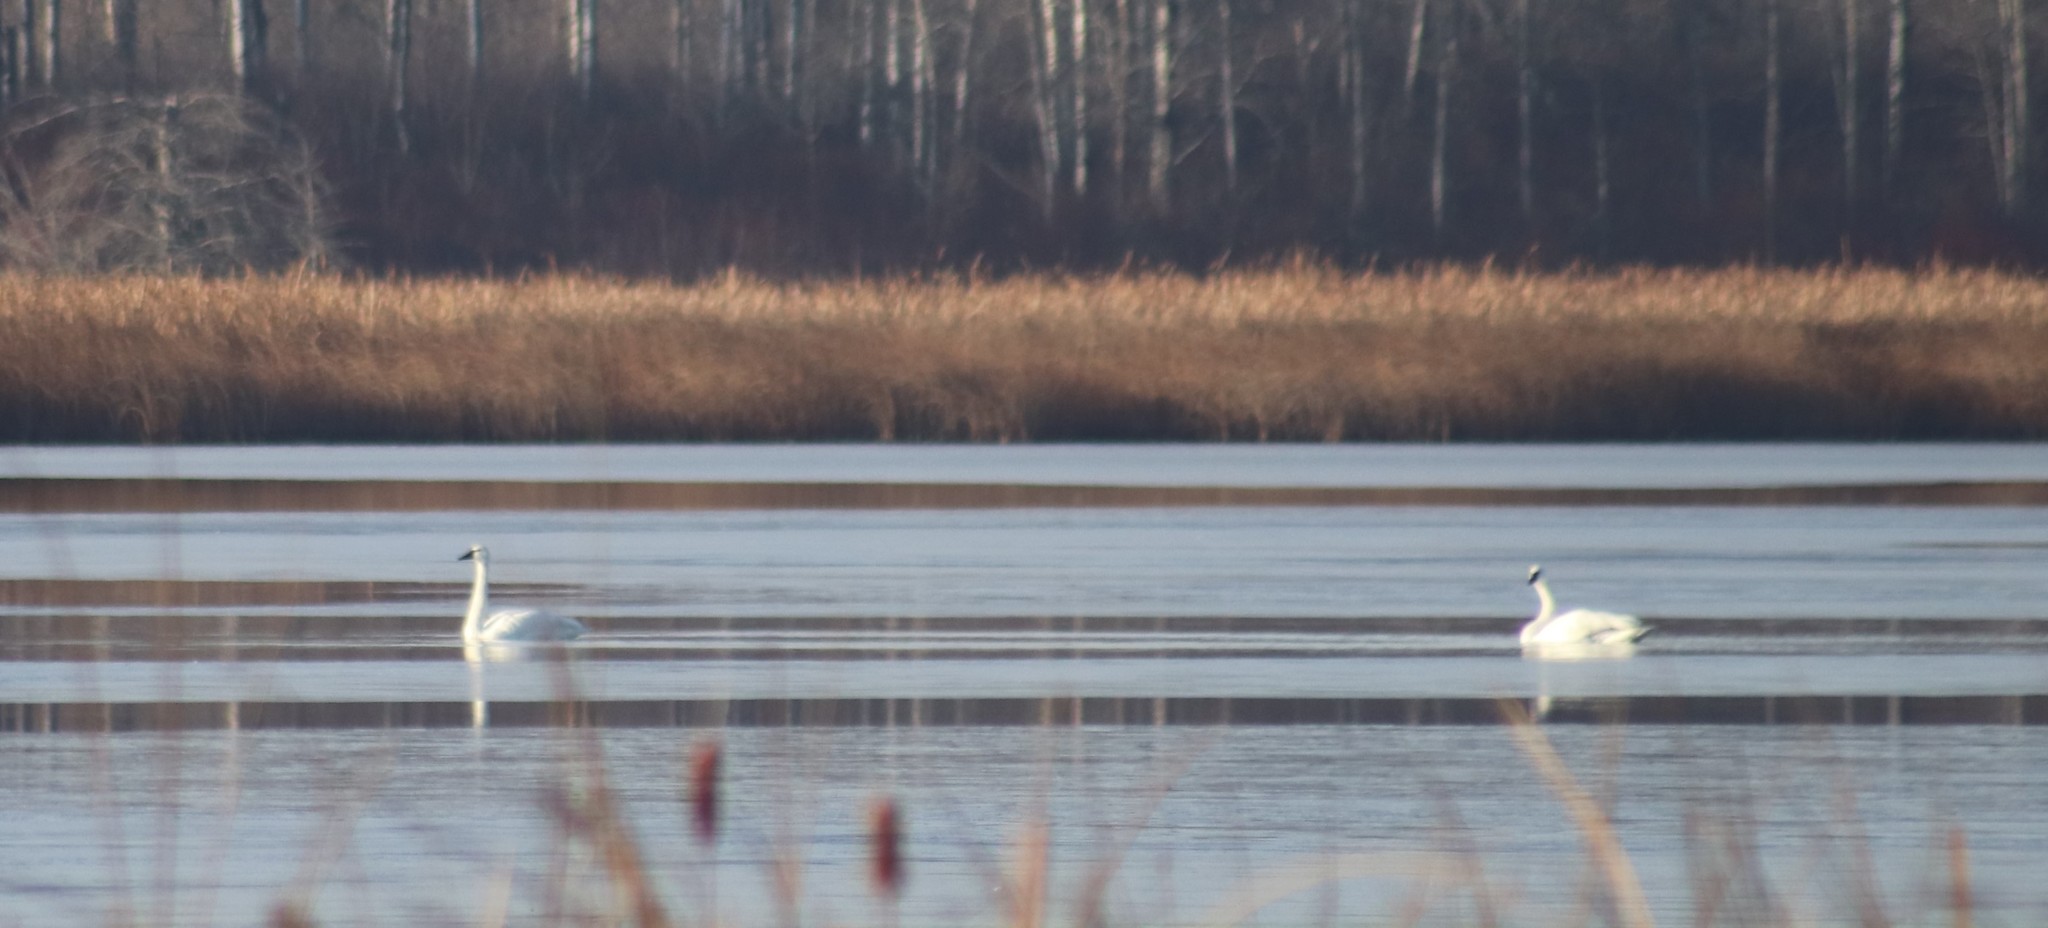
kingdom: Animalia
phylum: Chordata
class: Aves
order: Anseriformes
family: Anatidae
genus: Cygnus
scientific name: Cygnus buccinator
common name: Trumpeter swan
